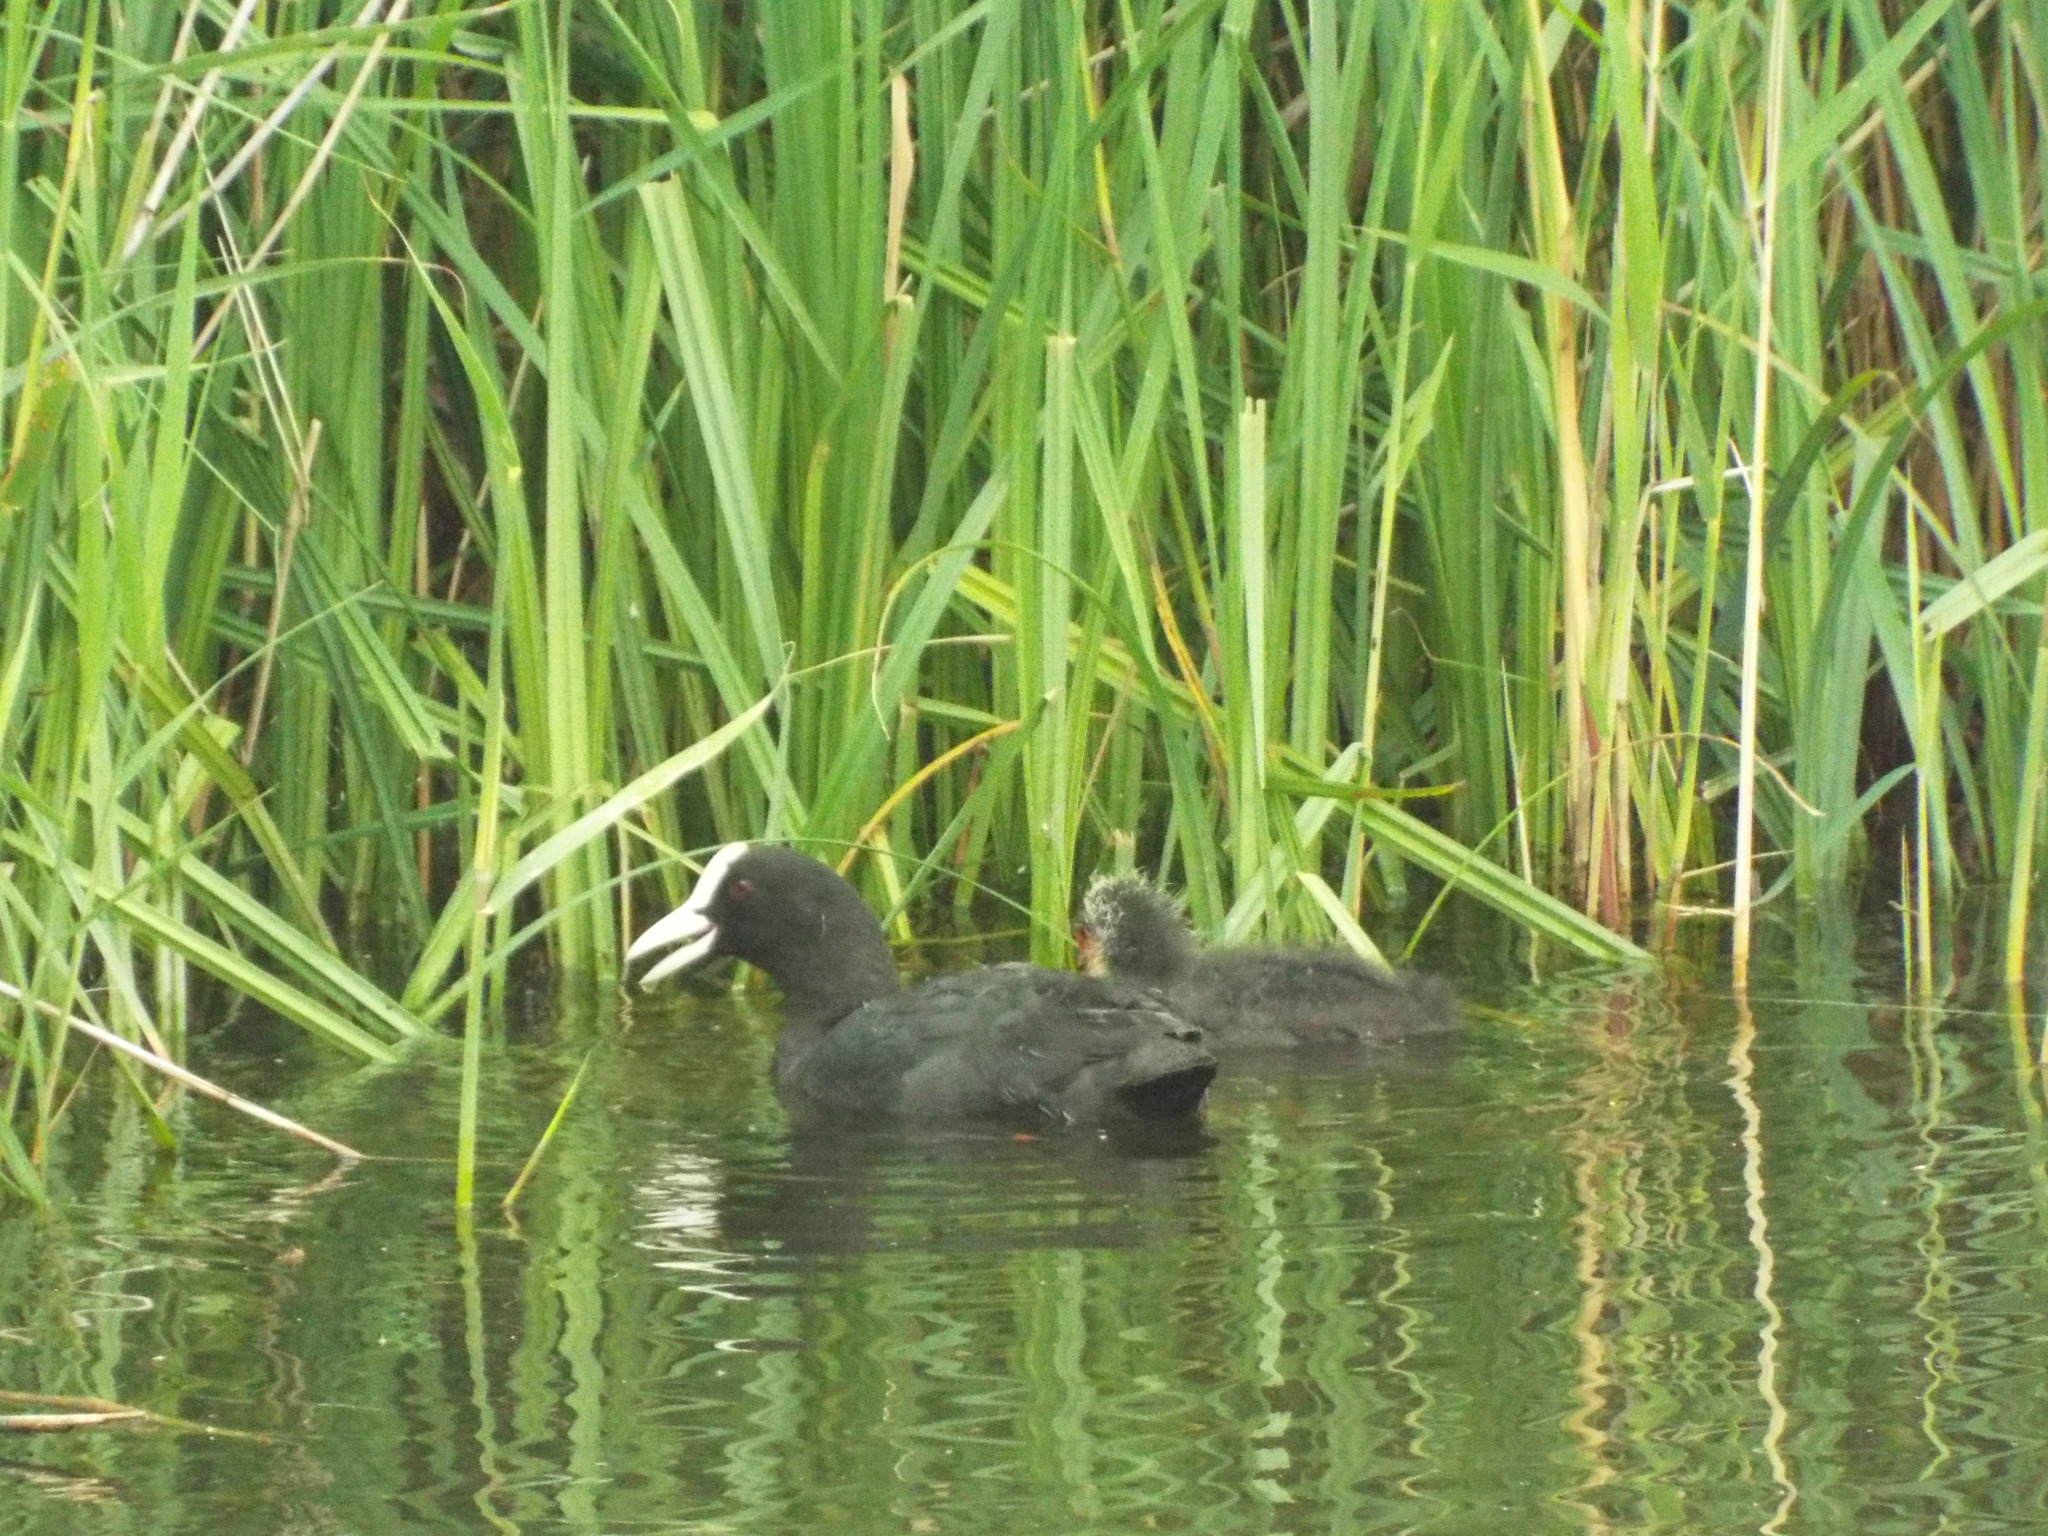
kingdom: Animalia
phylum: Chordata
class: Aves
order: Gruiformes
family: Rallidae
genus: Fulica
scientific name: Fulica atra
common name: Eurasian coot
